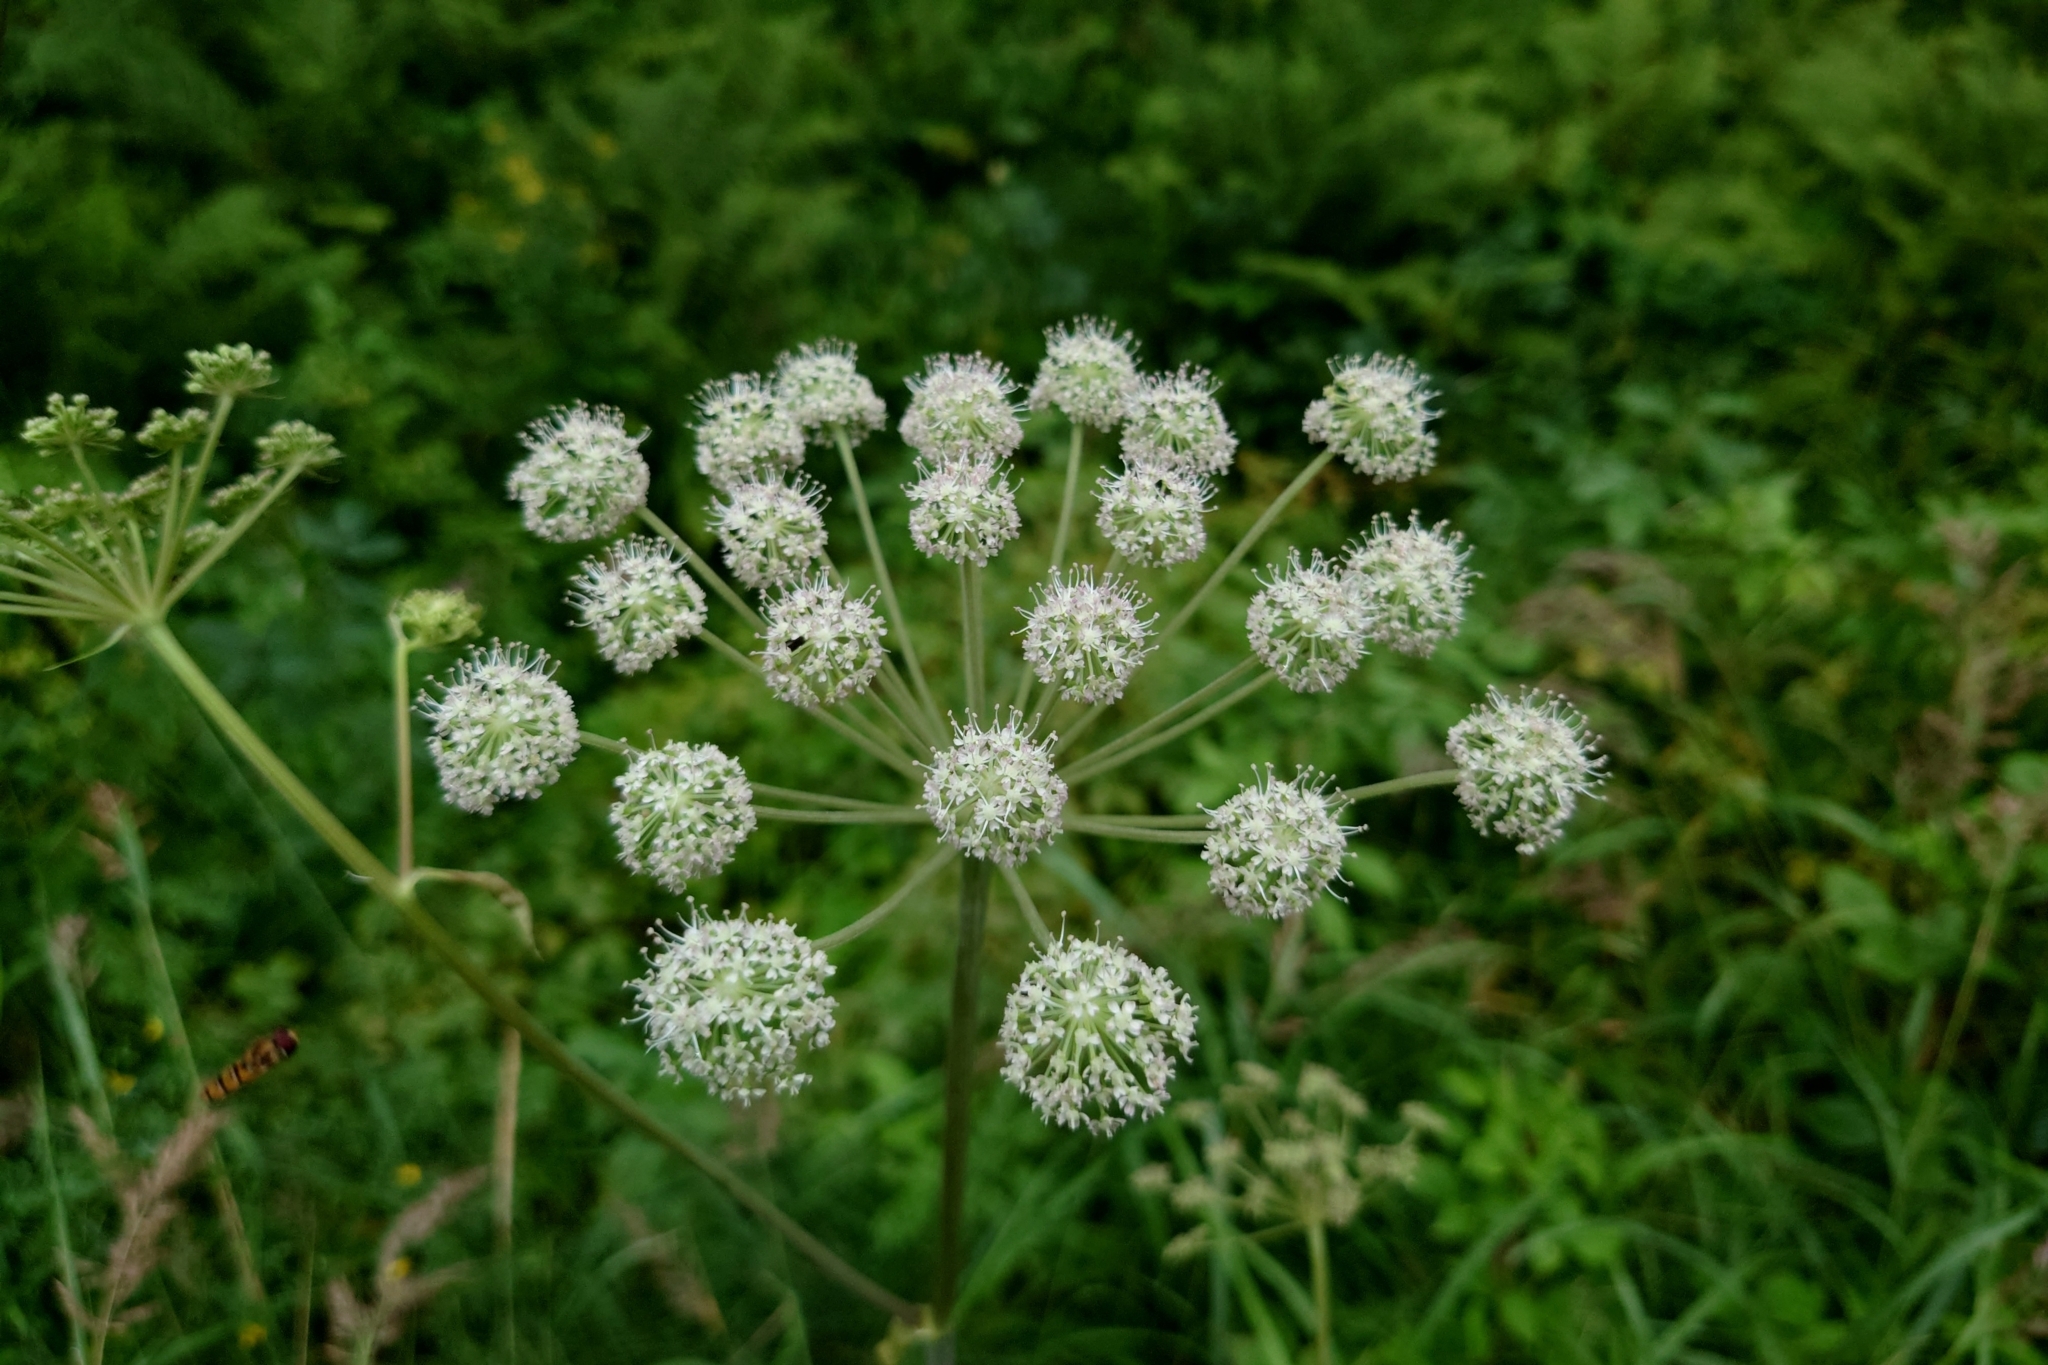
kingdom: Plantae
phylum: Tracheophyta
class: Magnoliopsida
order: Apiales
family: Apiaceae
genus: Angelica
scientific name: Angelica sylvestris
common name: Wild angelica
